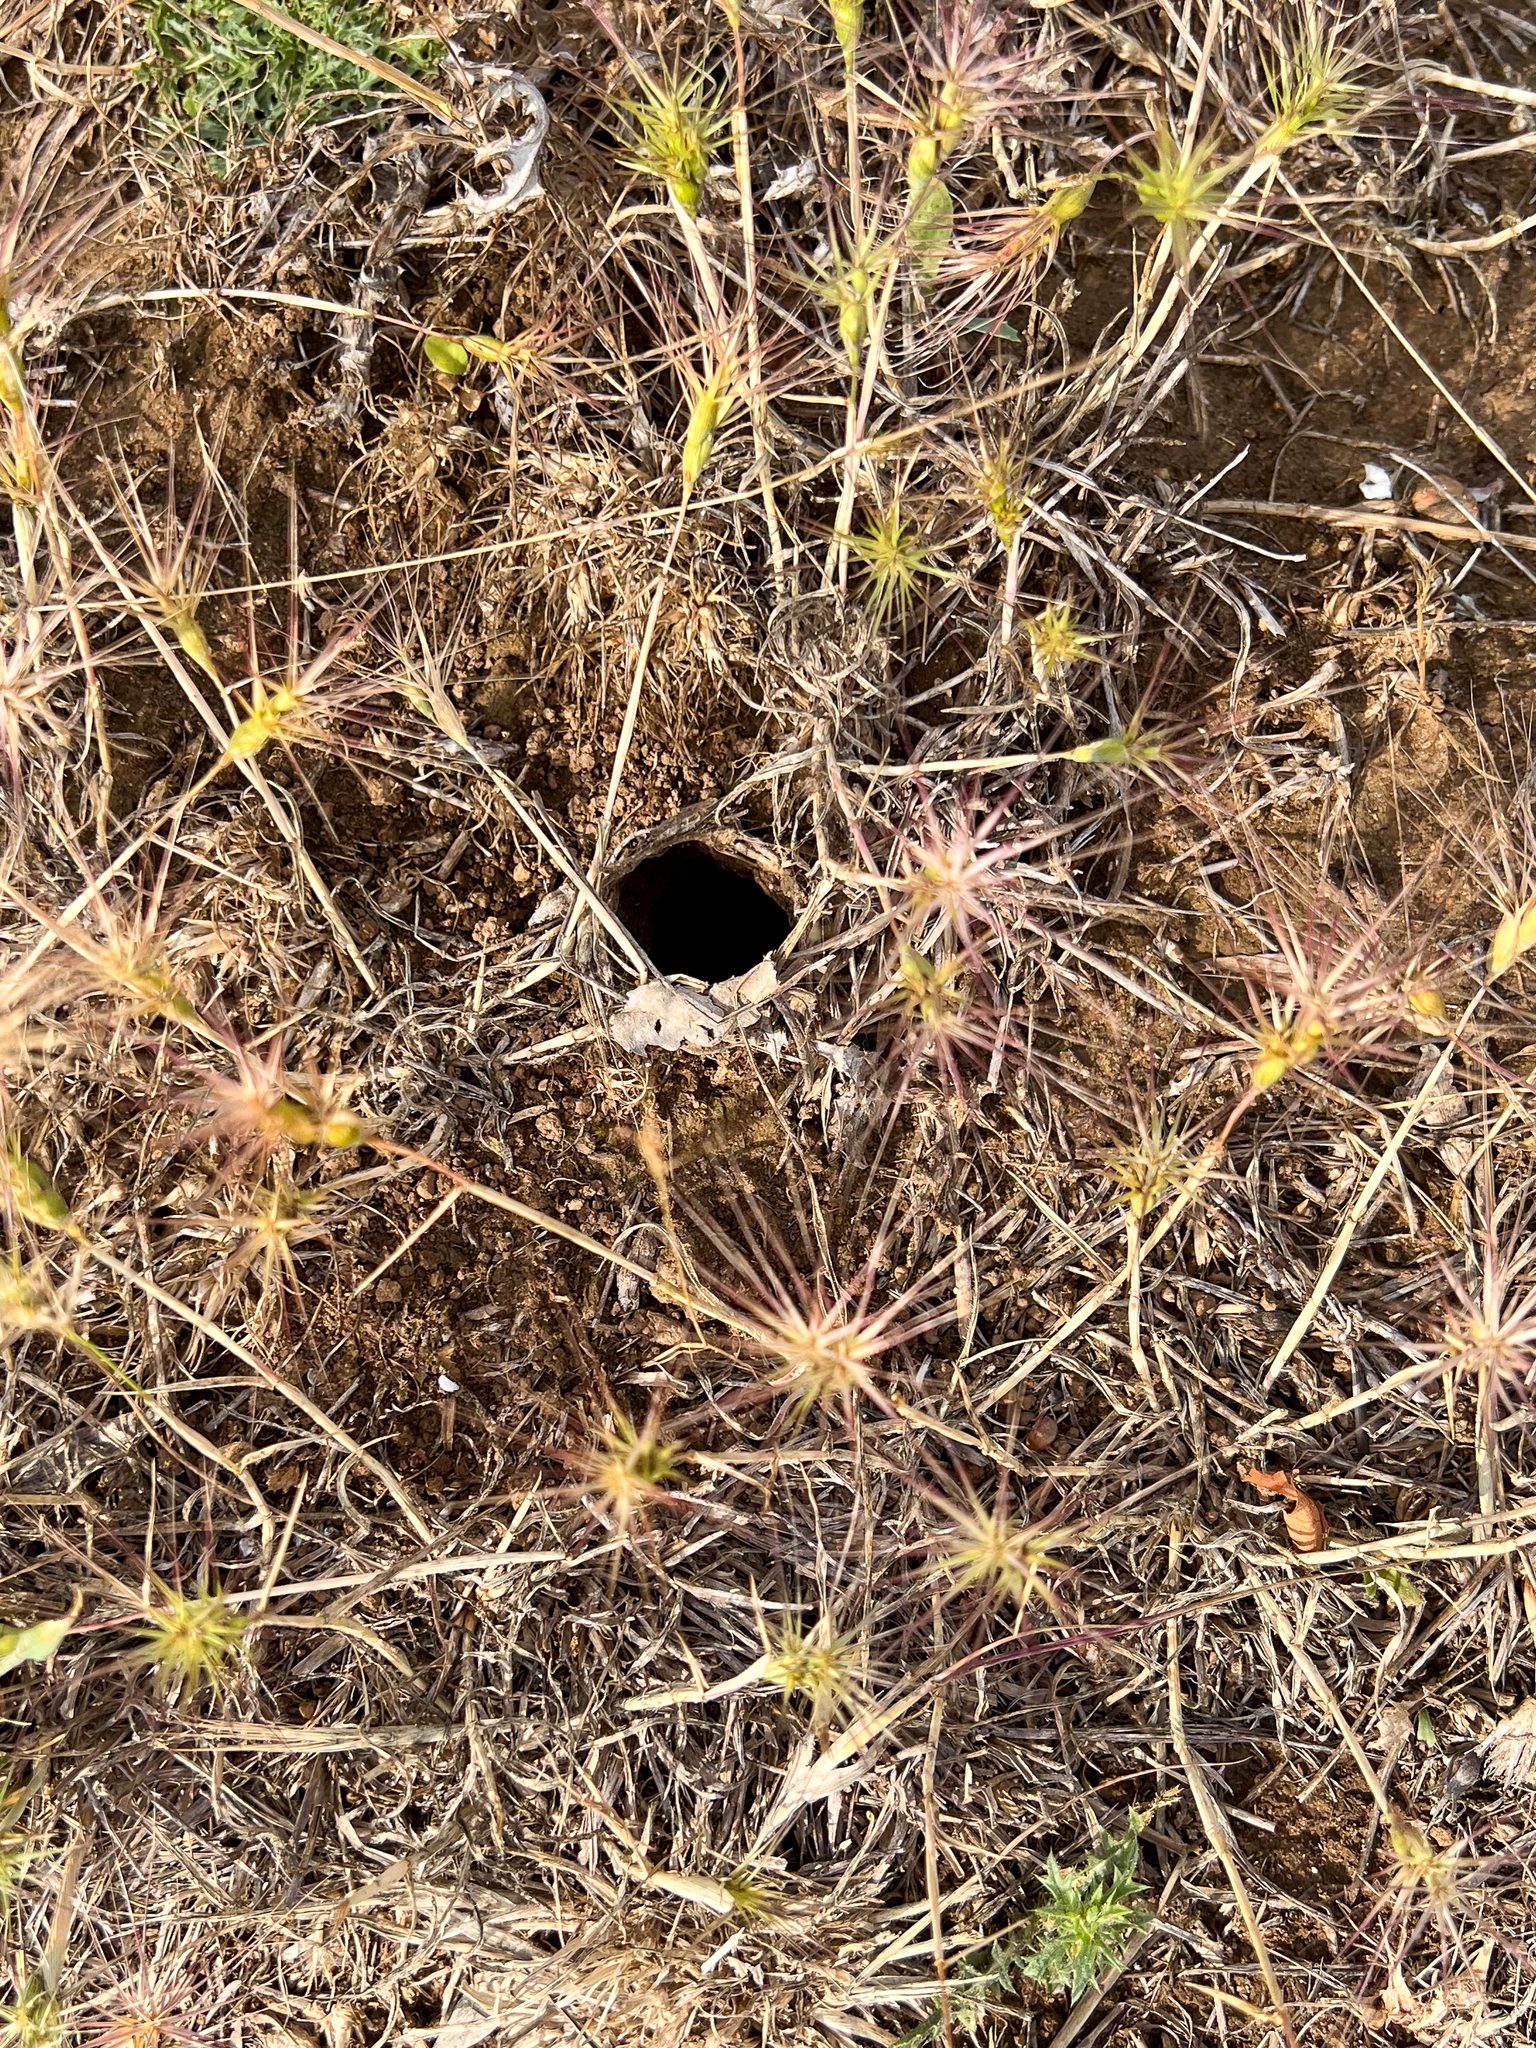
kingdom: Animalia
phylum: Arthropoda
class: Arachnida
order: Araneae
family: Lycosidae
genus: Lycosa
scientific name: Lycosa tarantula
